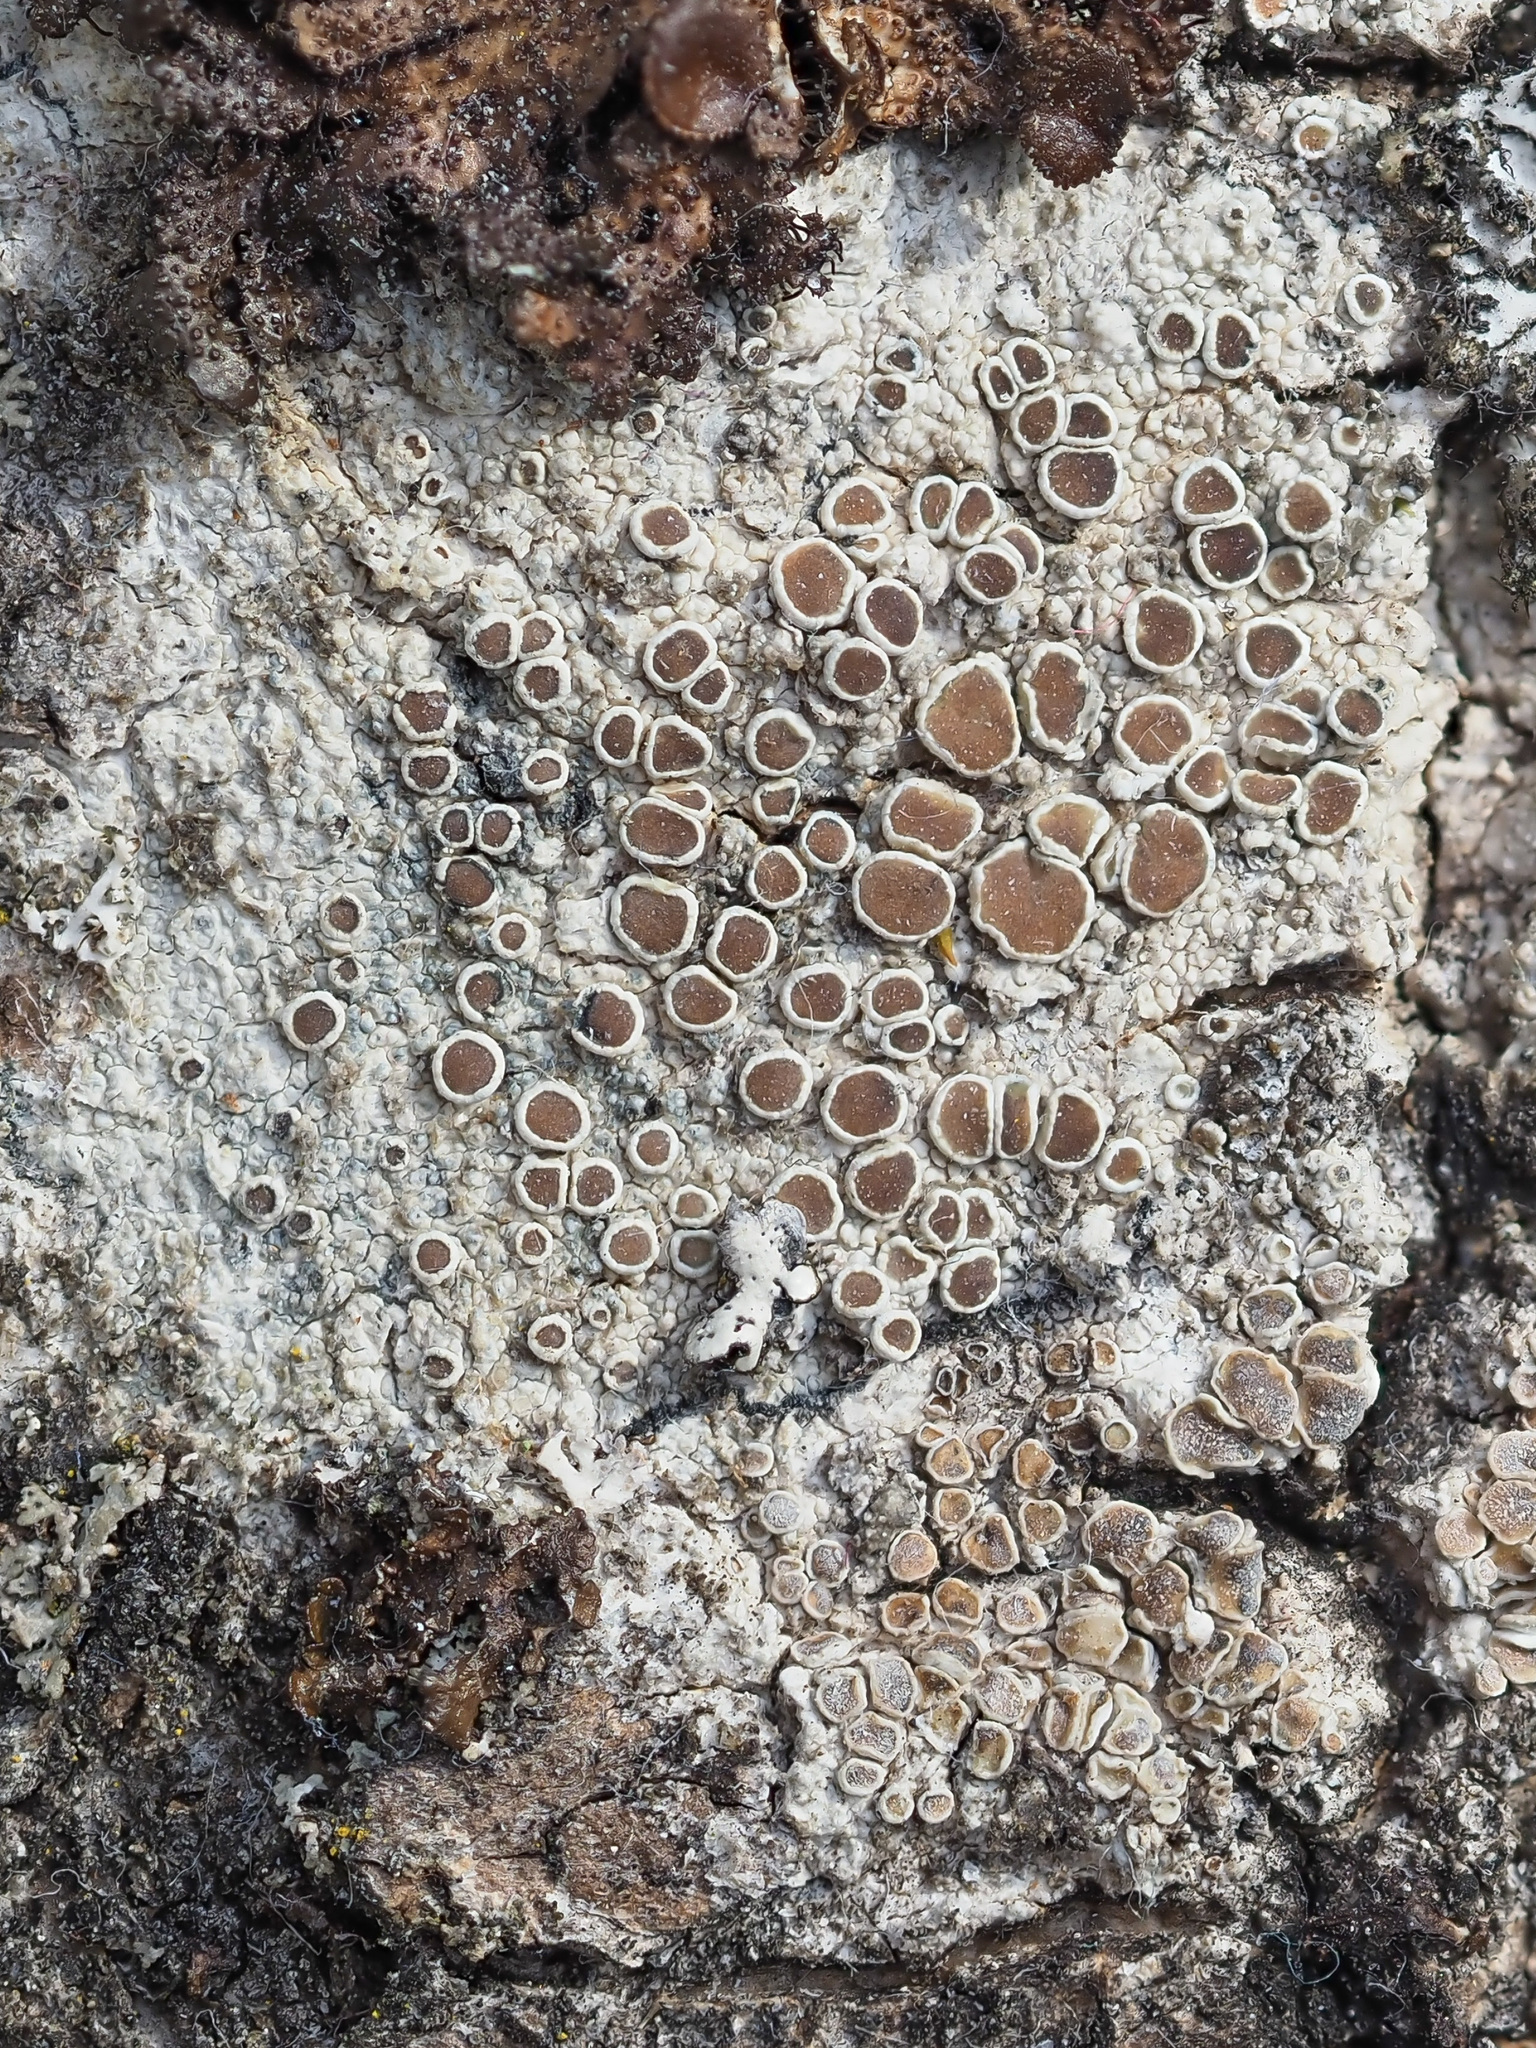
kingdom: Fungi
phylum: Ascomycota
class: Lecanoromycetes
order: Lecanorales
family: Lecanoraceae
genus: Lecanora
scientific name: Lecanora chlarotera
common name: Brown rim-lichen
